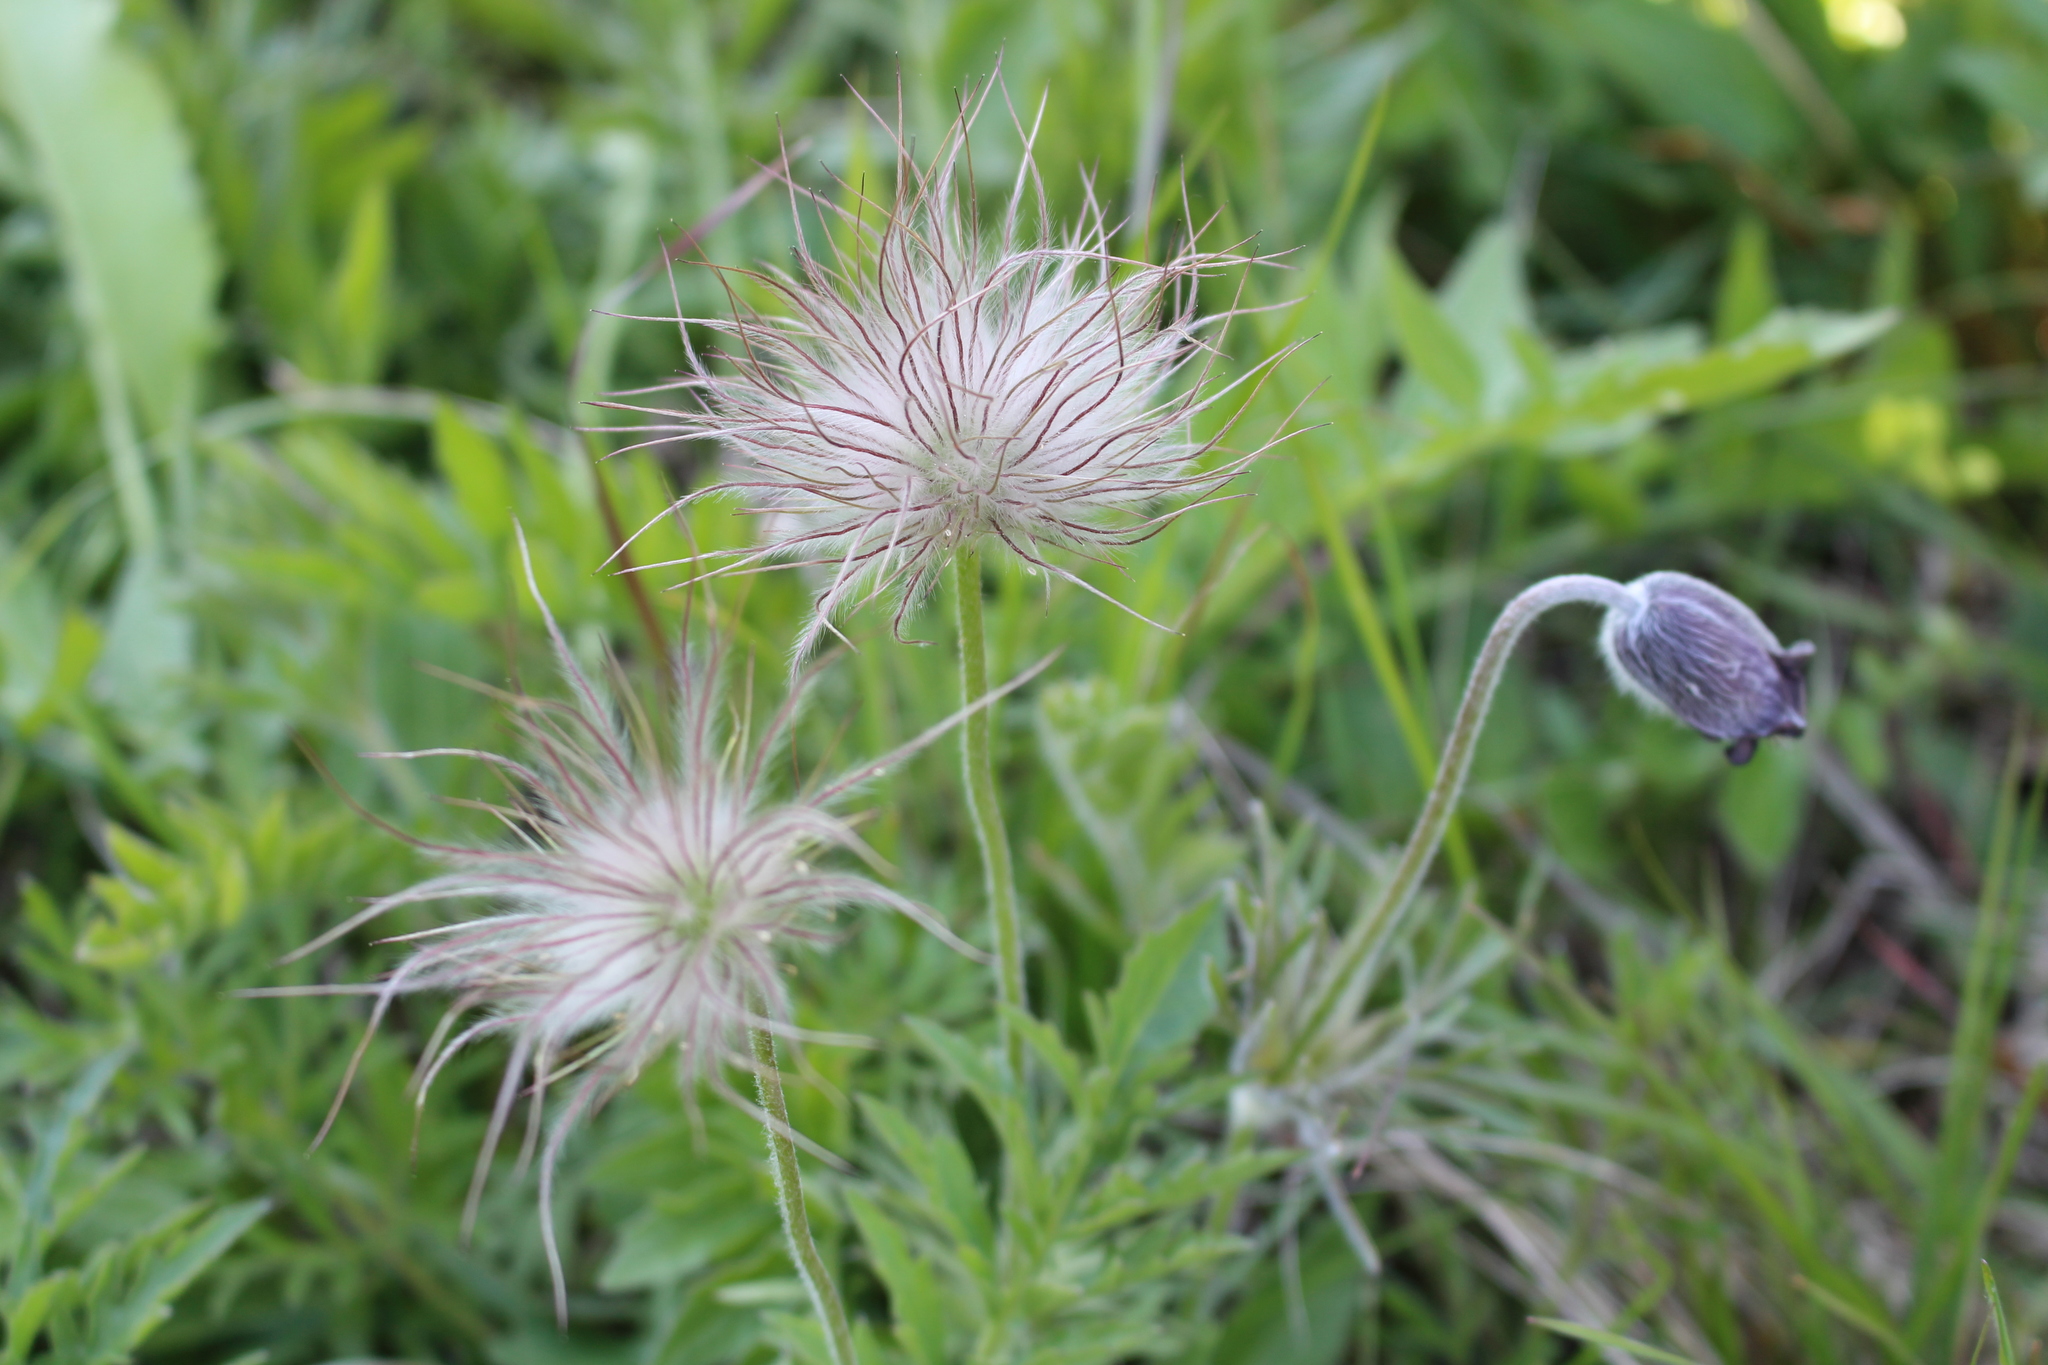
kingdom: Plantae
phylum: Tracheophyta
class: Magnoliopsida
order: Ranunculales
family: Ranunculaceae
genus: Pulsatilla
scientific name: Pulsatilla pratensis
